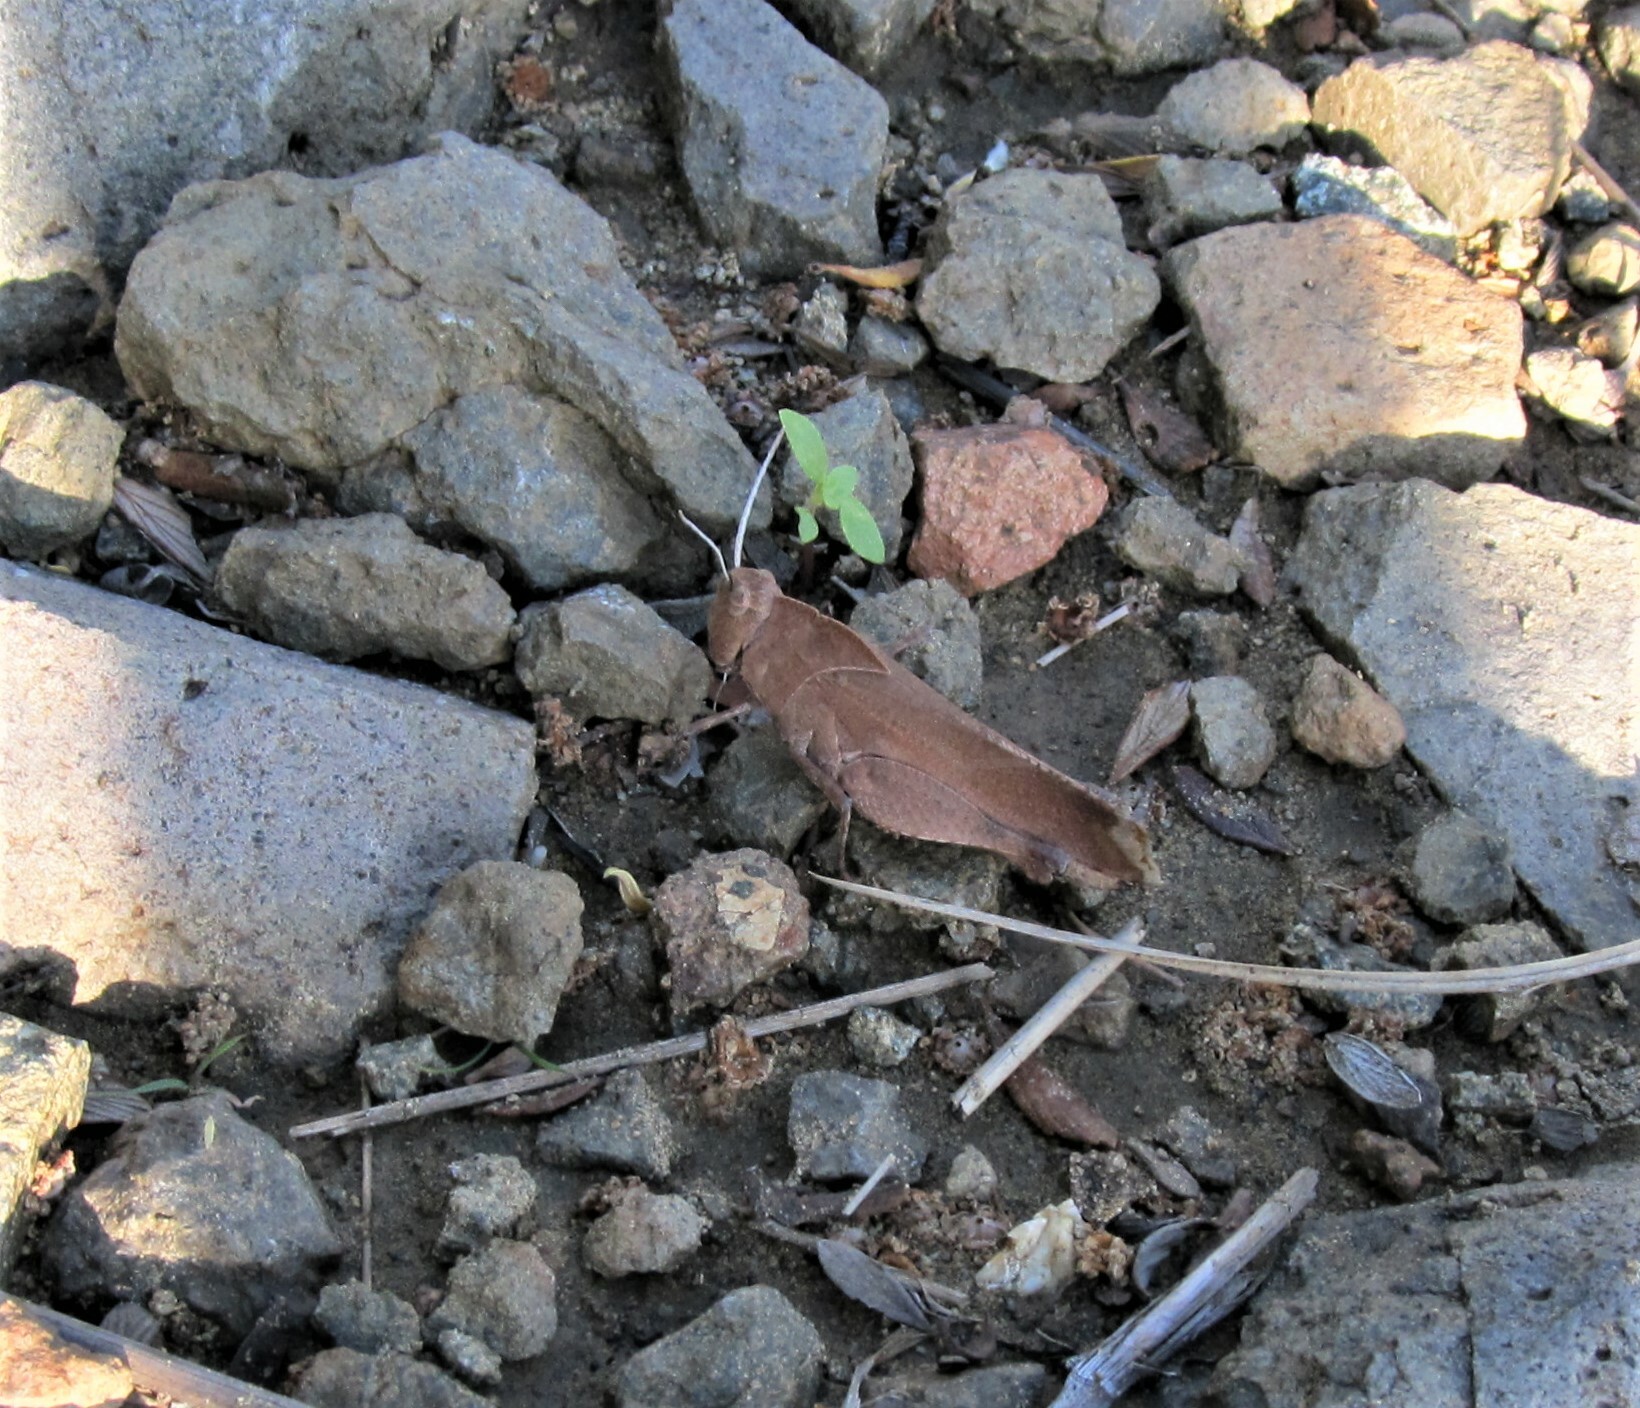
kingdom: Animalia
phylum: Arthropoda
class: Insecta
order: Orthoptera
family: Acrididae
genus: Tomonotus
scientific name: Tomonotus ferruginosus
